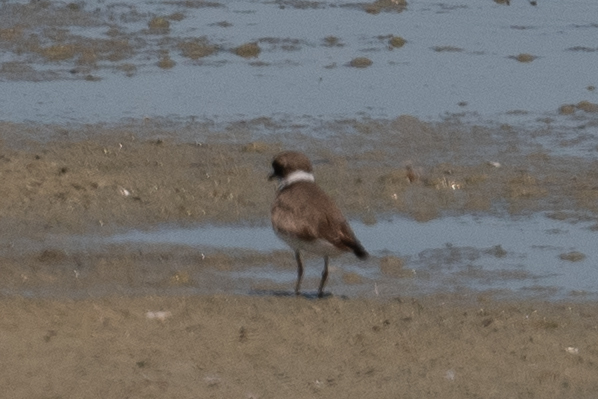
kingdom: Animalia
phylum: Chordata
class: Aves
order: Charadriiformes
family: Charadriidae
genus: Charadrius
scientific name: Charadrius semipalmatus
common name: Semipalmated plover
